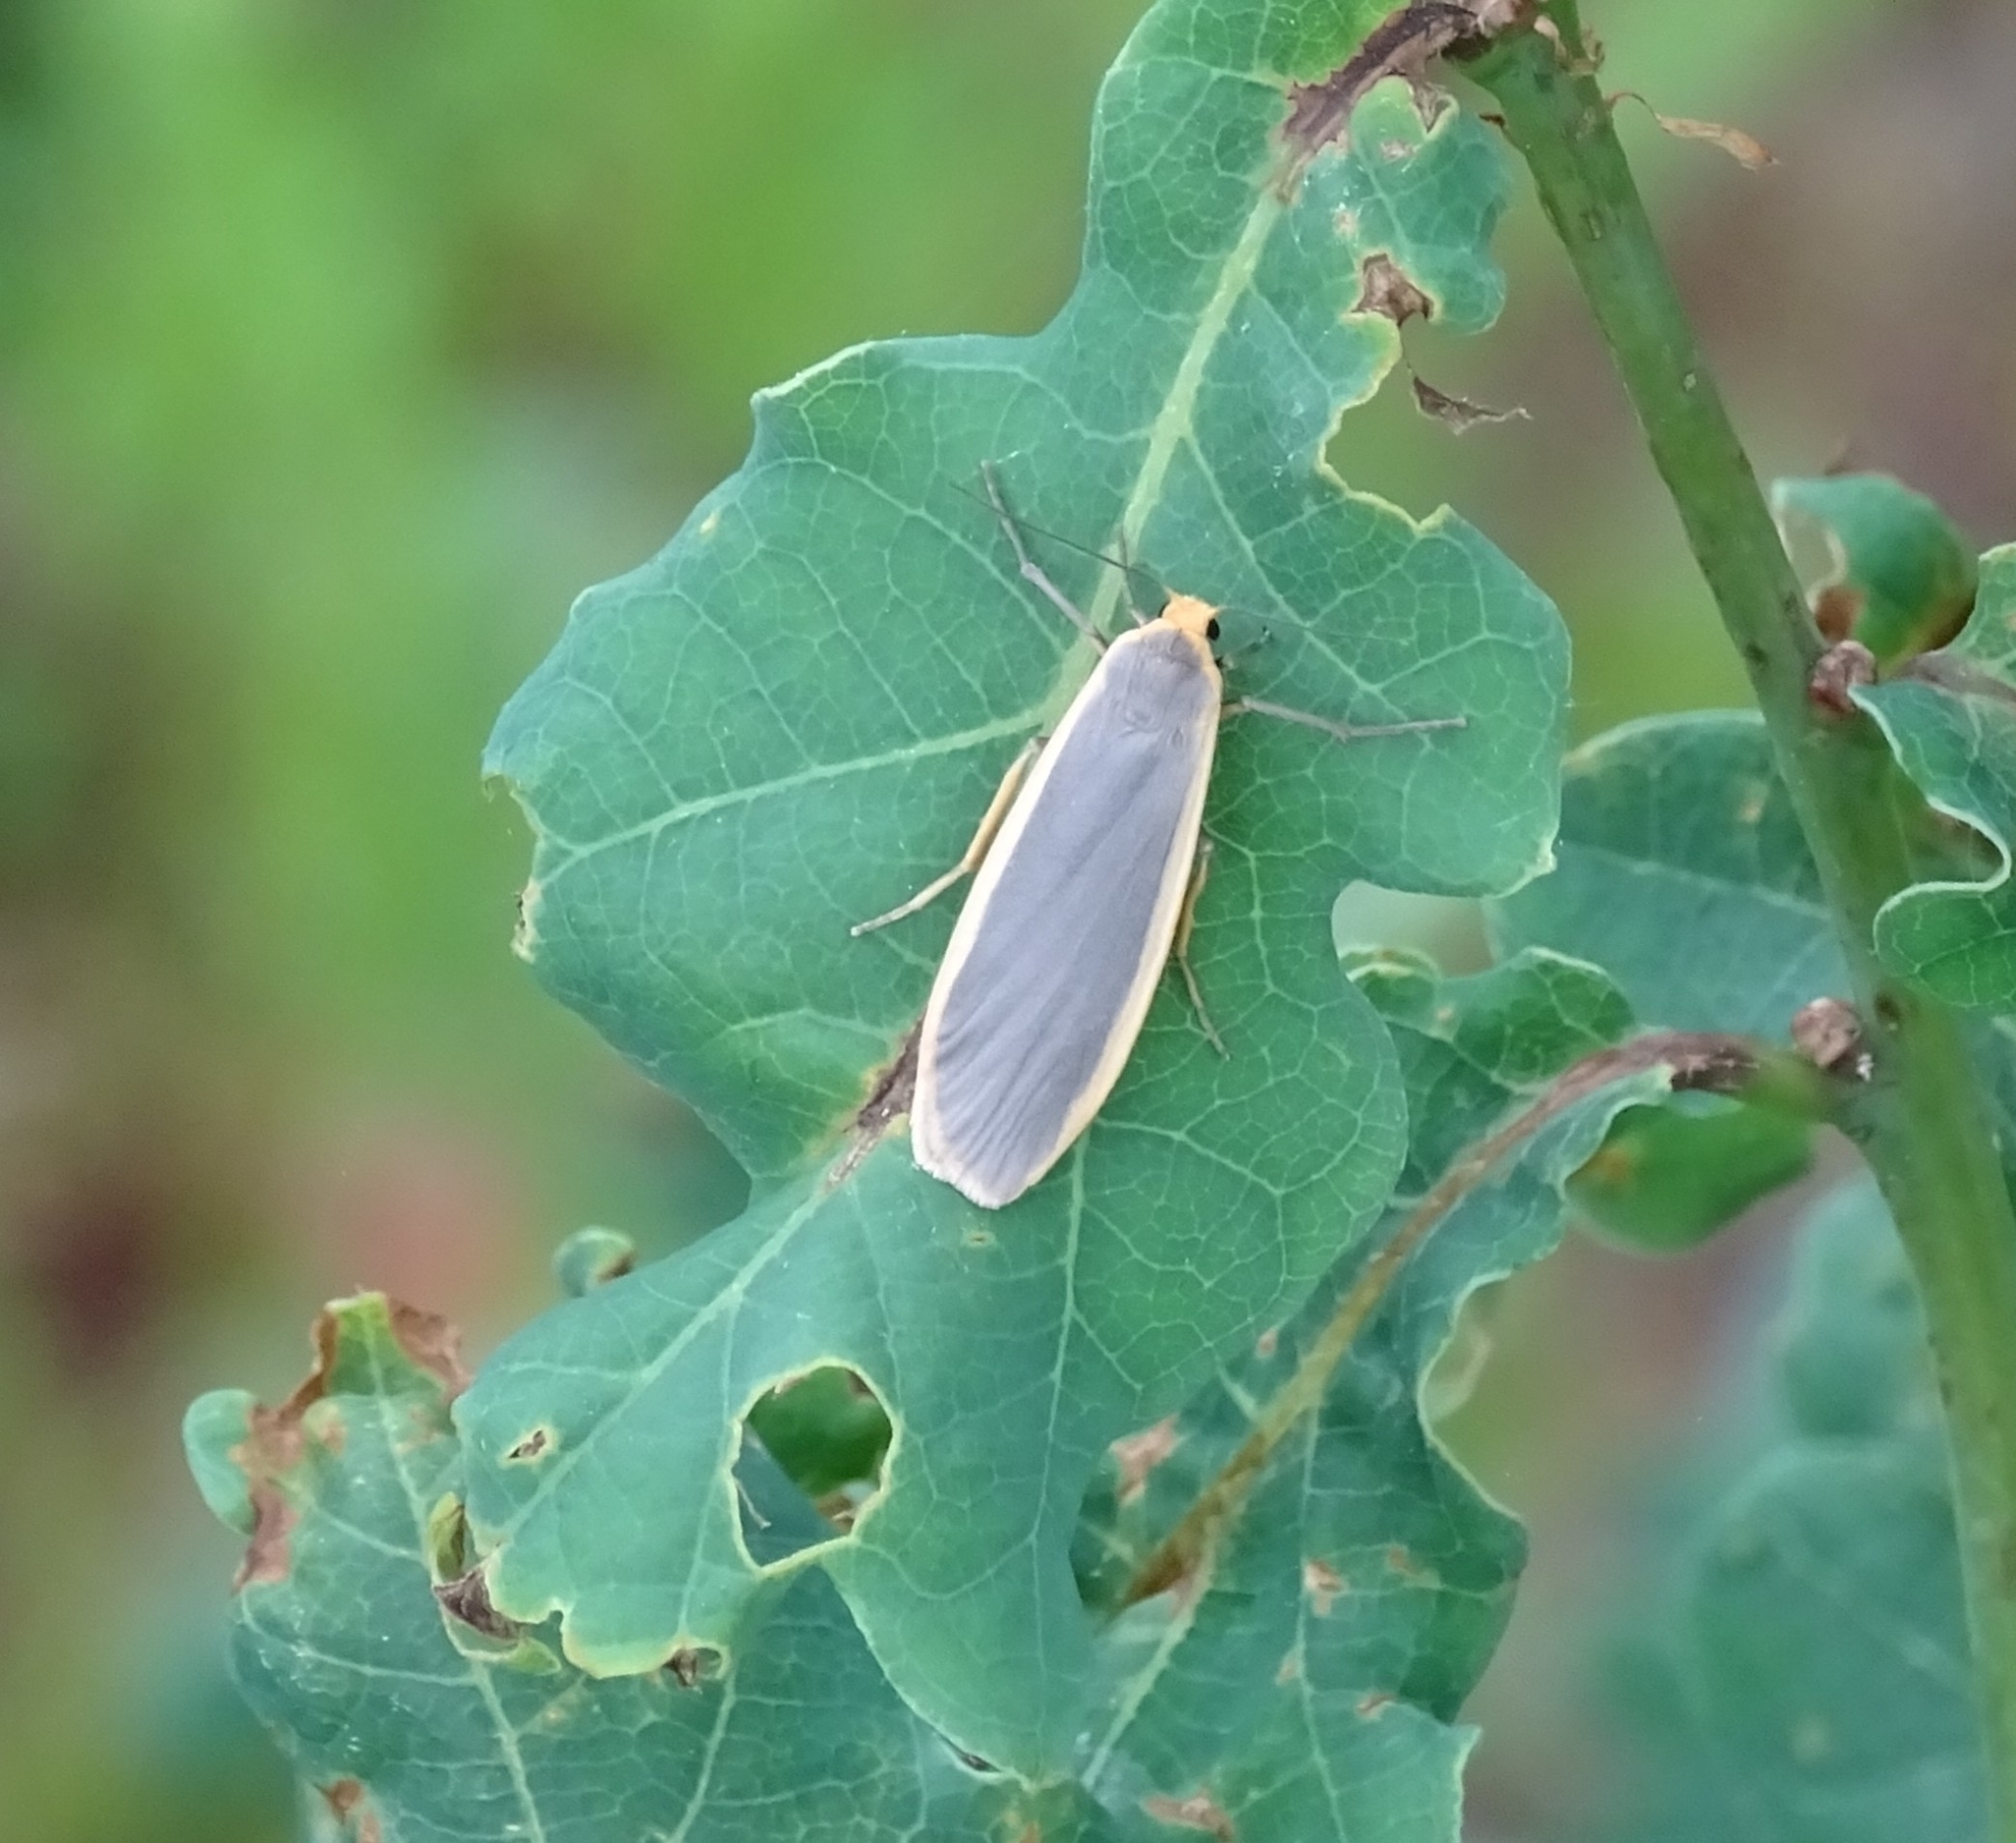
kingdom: Animalia
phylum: Arthropoda
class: Insecta
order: Lepidoptera
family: Erebidae
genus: Nyea
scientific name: Nyea lurideola
